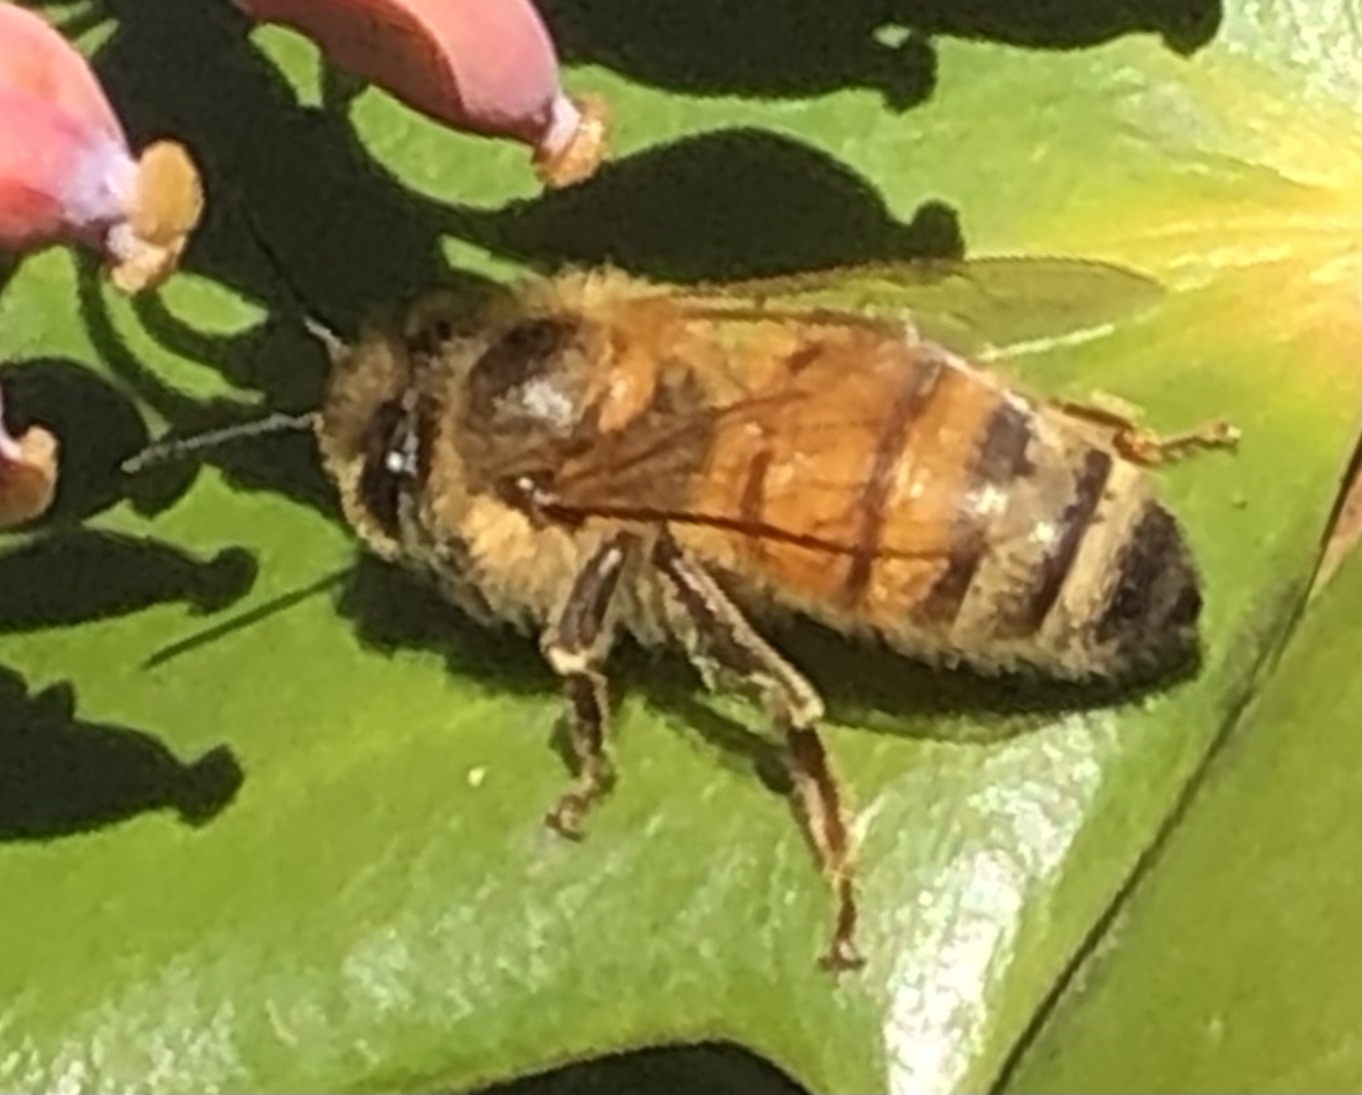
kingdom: Animalia
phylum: Arthropoda
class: Insecta
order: Hymenoptera
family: Apidae
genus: Apis
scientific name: Apis mellifera
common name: Honey bee
